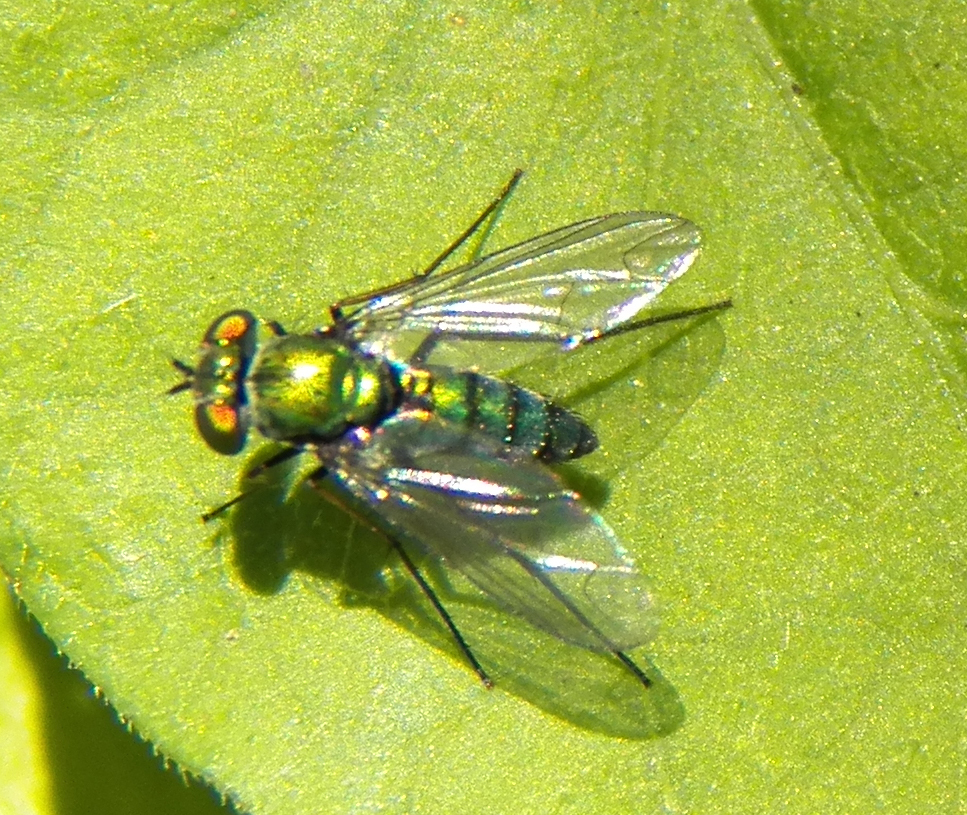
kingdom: Animalia
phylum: Arthropoda
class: Insecta
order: Diptera
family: Dolichopodidae
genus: Condylostylus
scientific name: Condylostylus longicornis
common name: Long-legged fly
